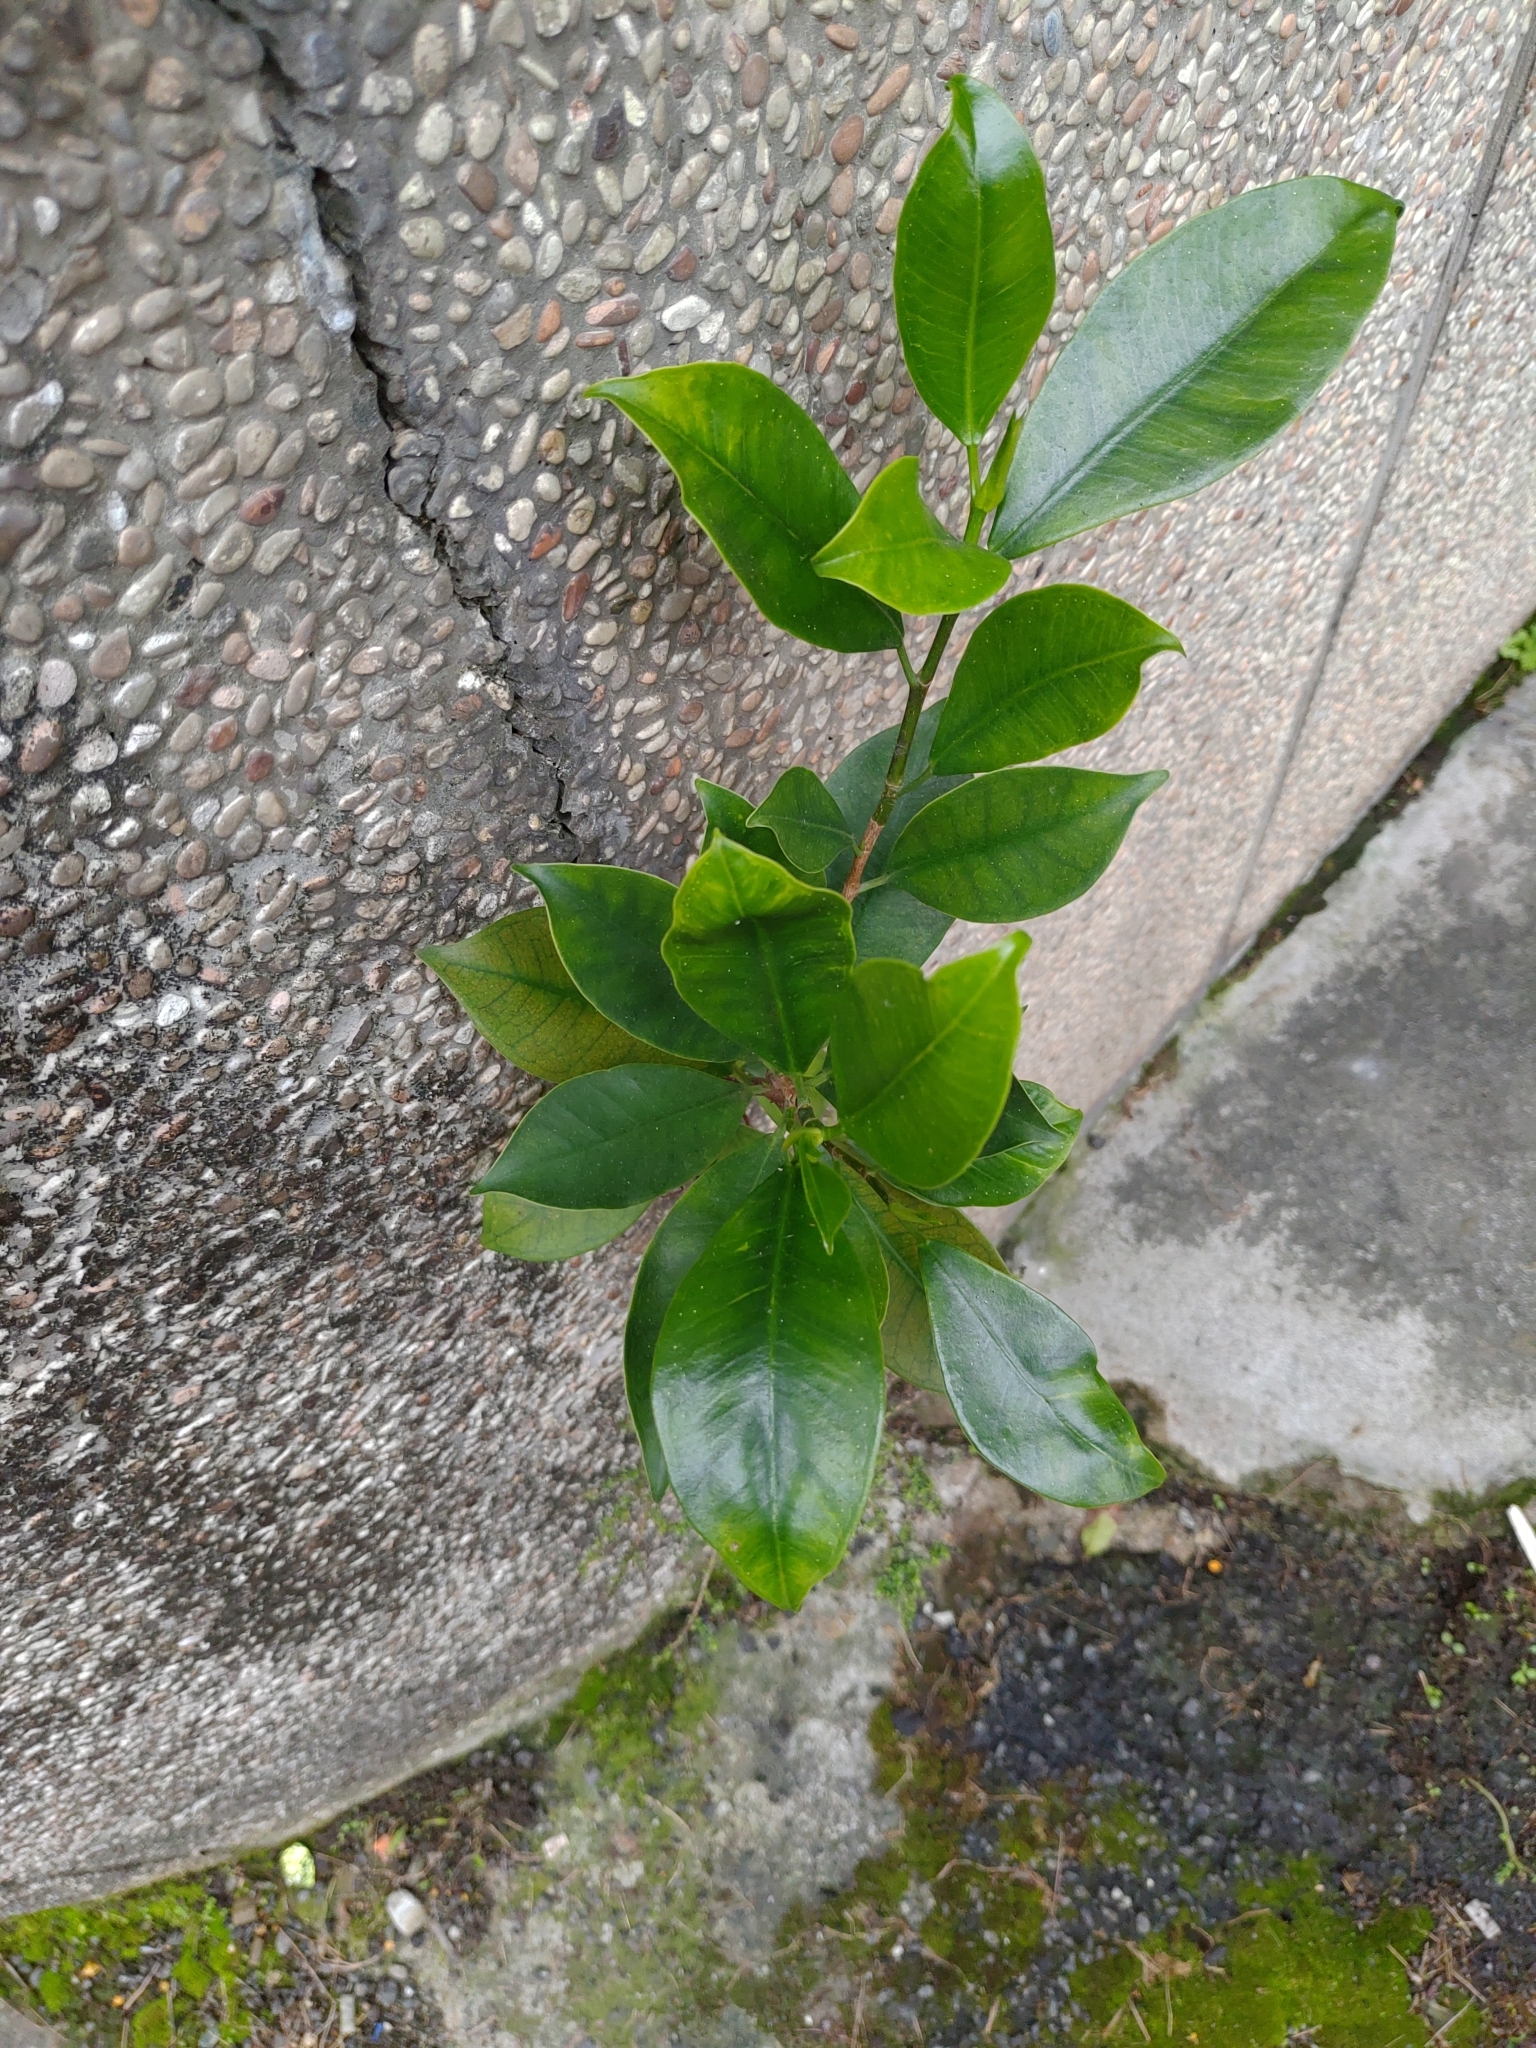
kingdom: Plantae
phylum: Tracheophyta
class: Magnoliopsida
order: Rosales
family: Moraceae
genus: Ficus
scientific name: Ficus microcarpa
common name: Chinese banyan
